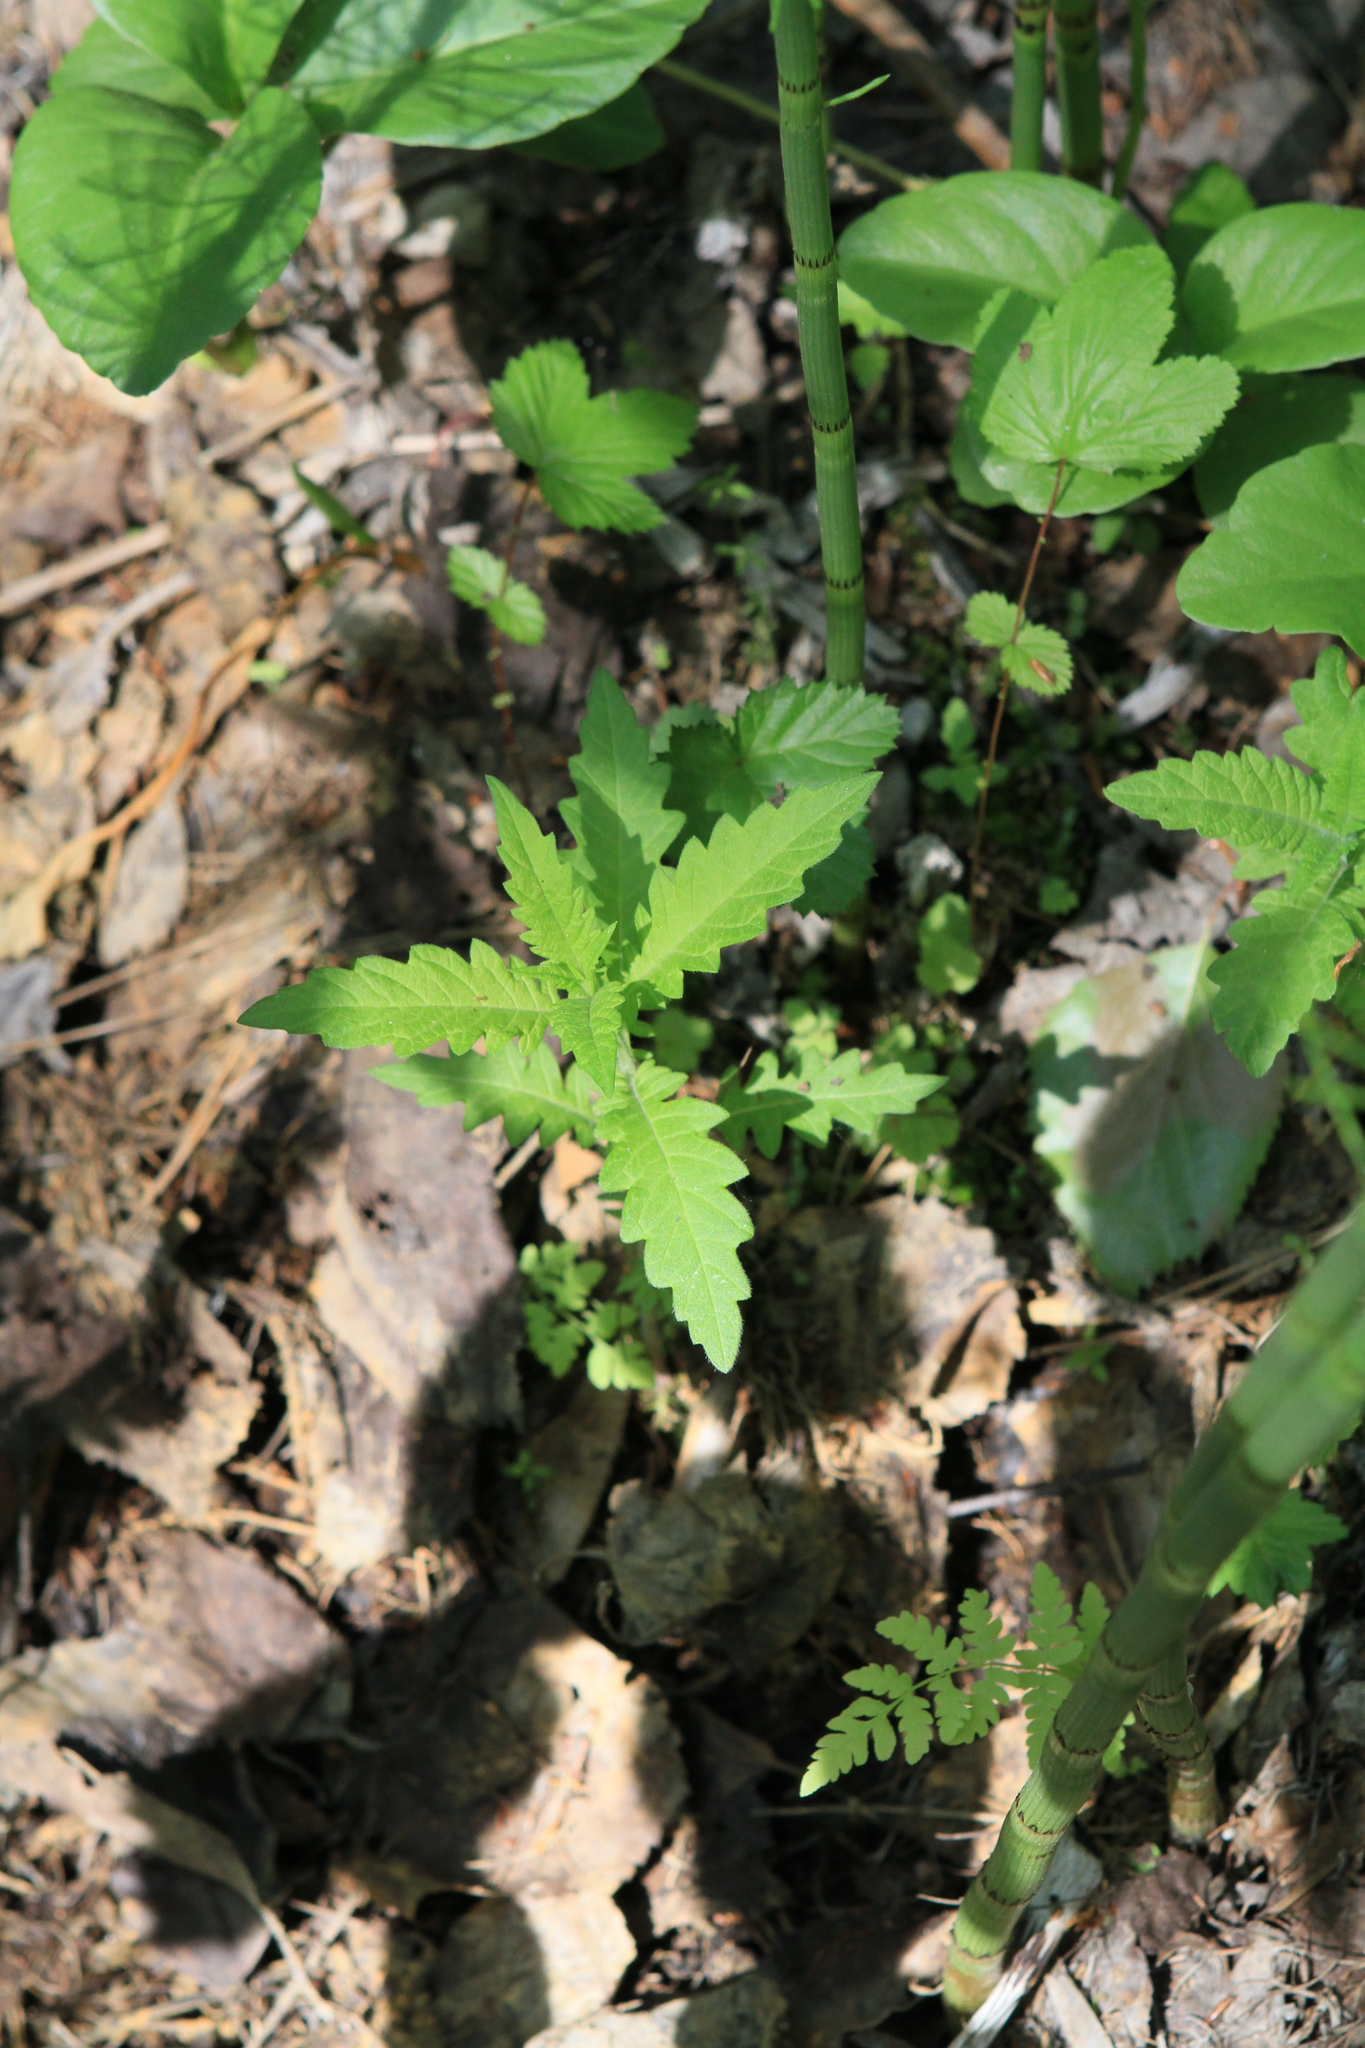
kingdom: Plantae
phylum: Tracheophyta
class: Magnoliopsida
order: Lamiales
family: Lamiaceae
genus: Lycopus
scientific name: Lycopus europaeus
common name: European bugleweed
